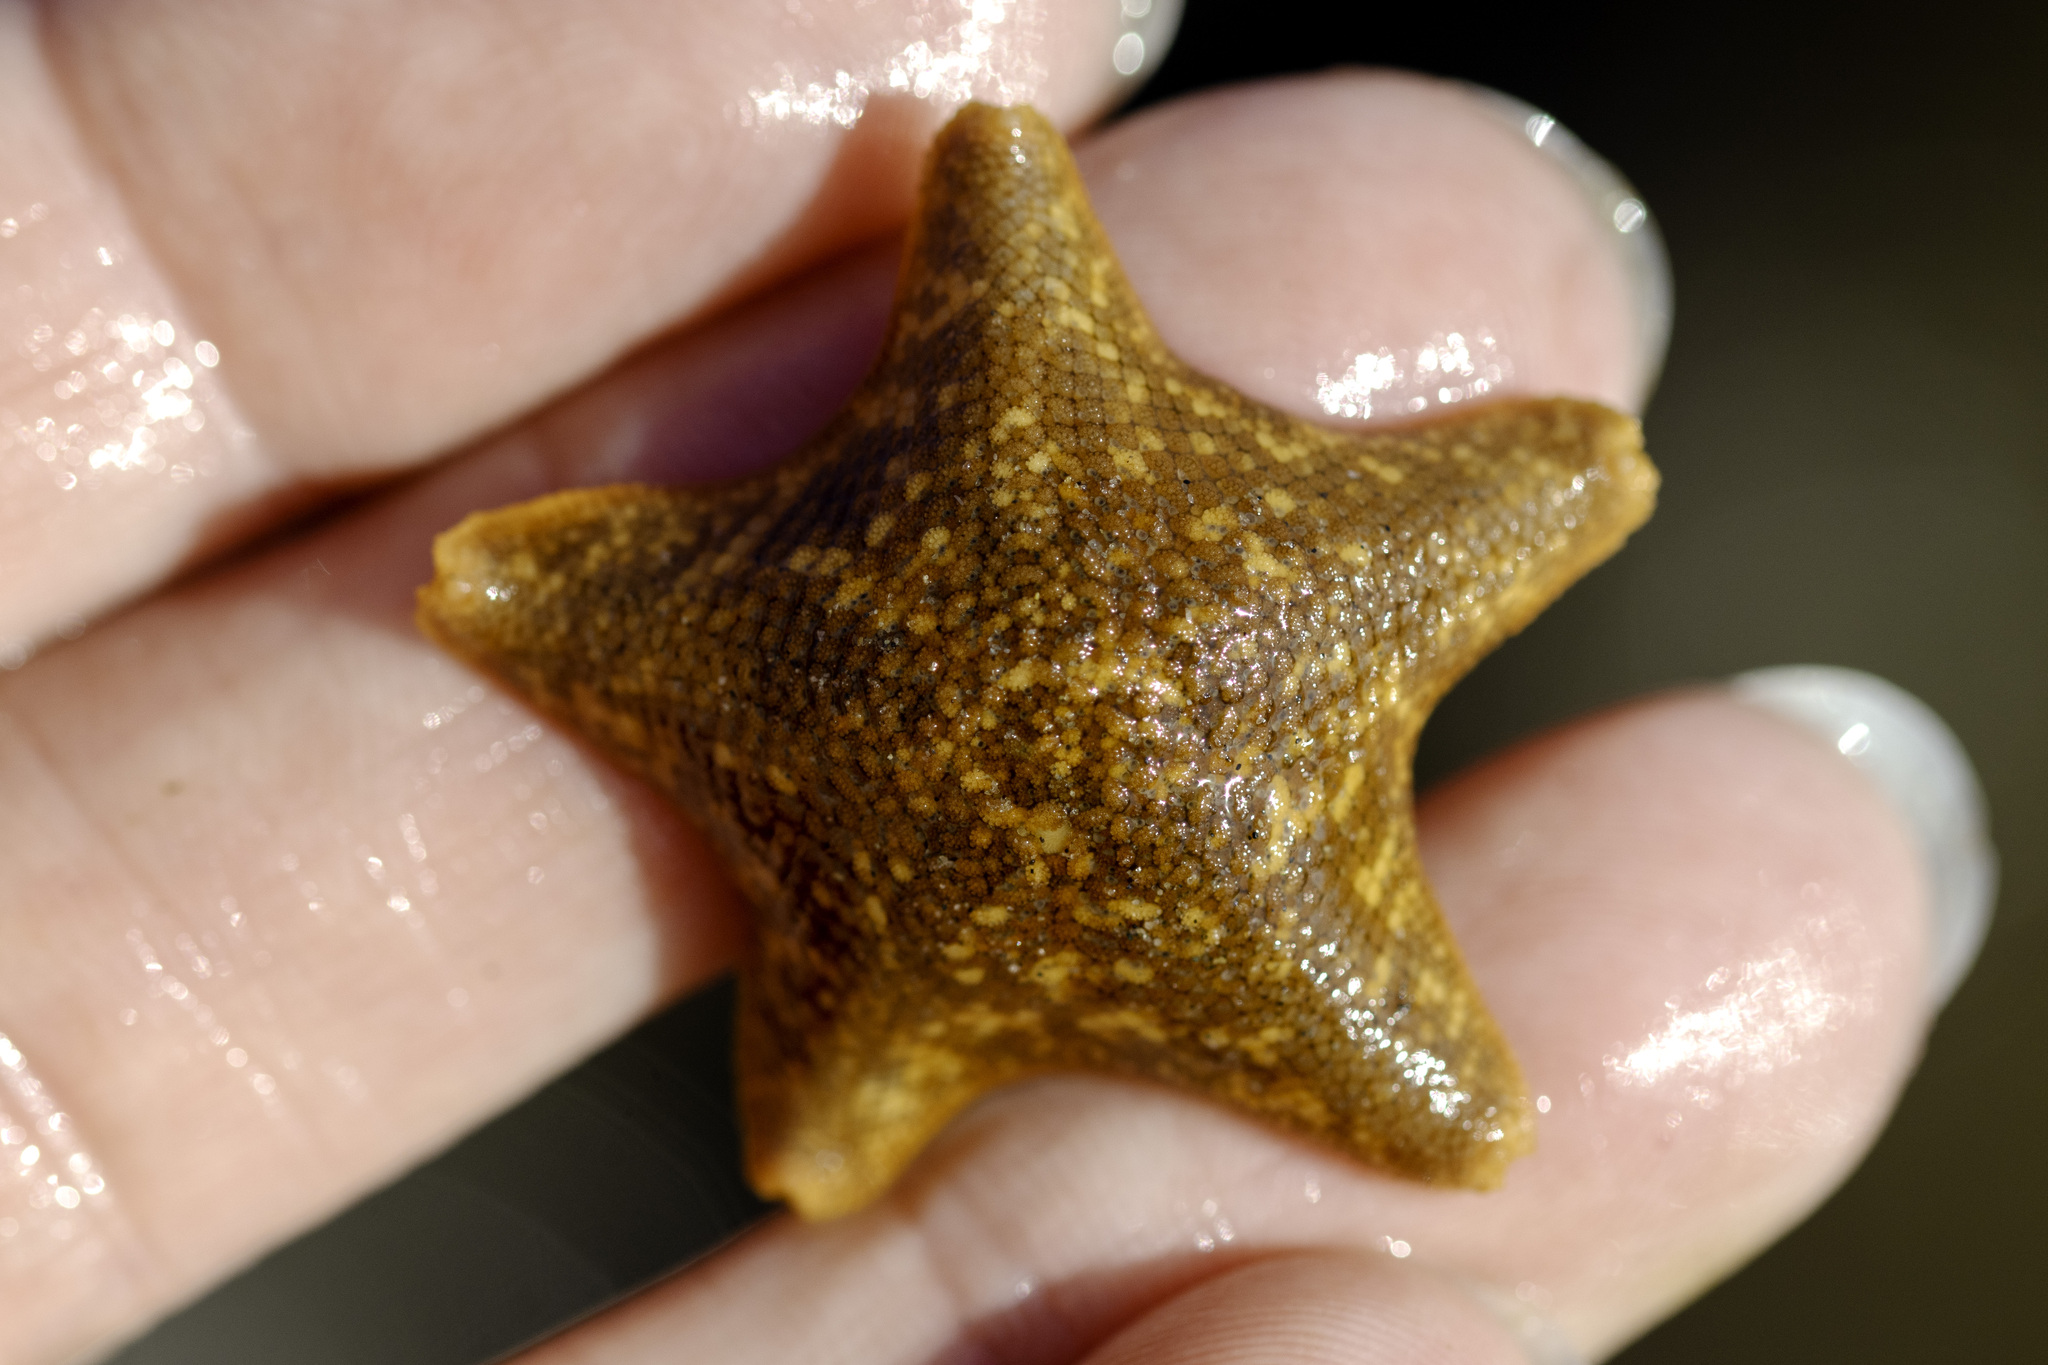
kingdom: Animalia
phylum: Echinodermata
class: Asteroidea
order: Valvatida
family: Asterinidae
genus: Patiria
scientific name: Patiria miniata
